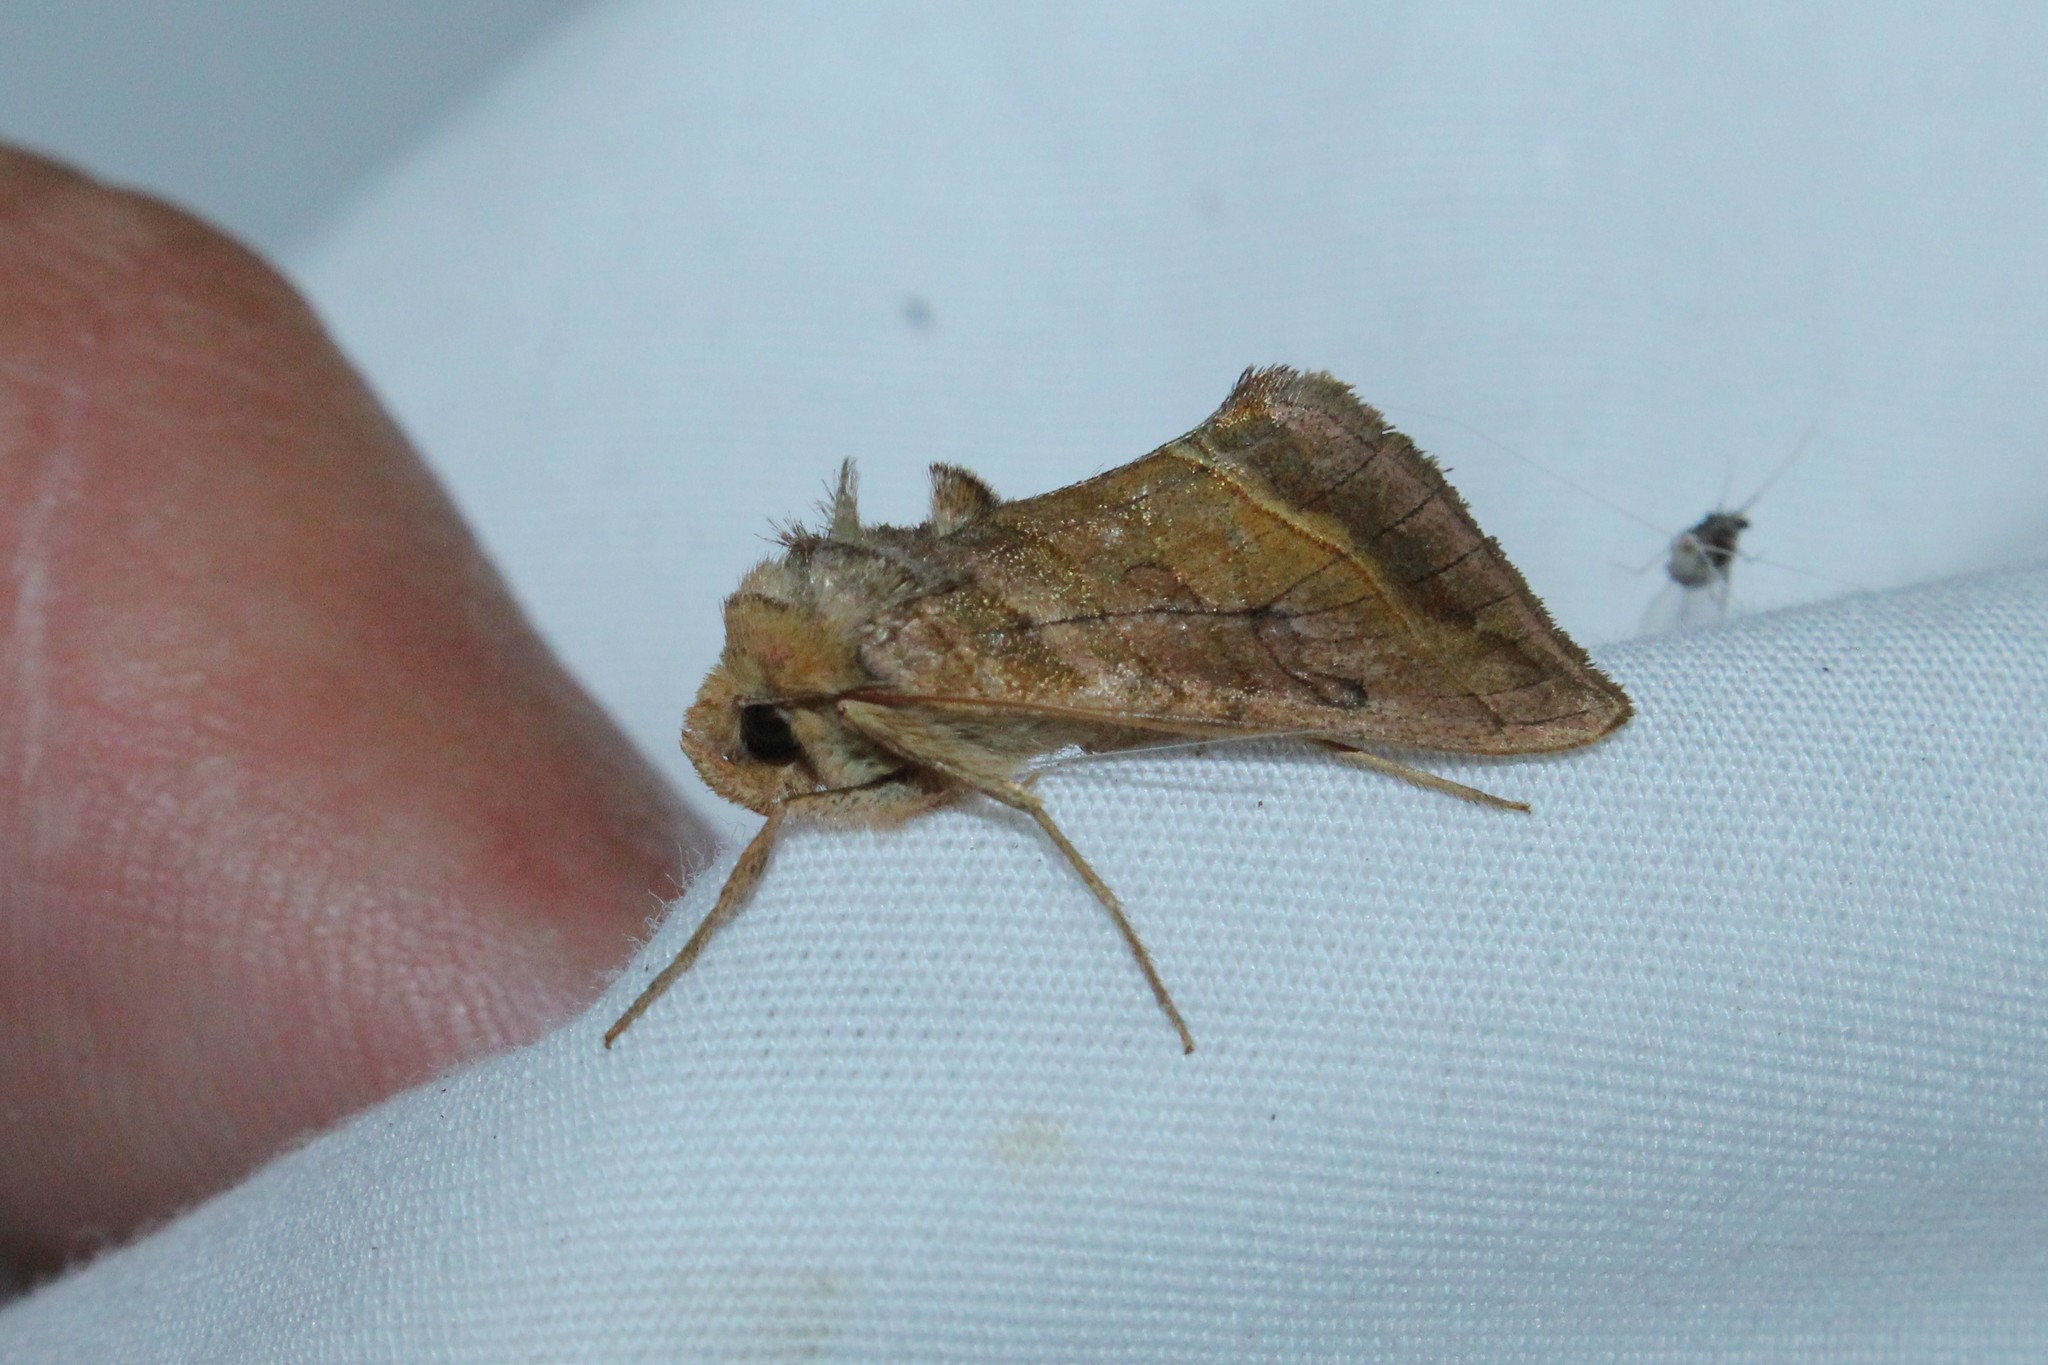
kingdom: Animalia
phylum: Arthropoda
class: Insecta
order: Lepidoptera
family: Noctuidae
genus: Diachrysia
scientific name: Diachrysia aereoides
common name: Dark-spotted looper moth
